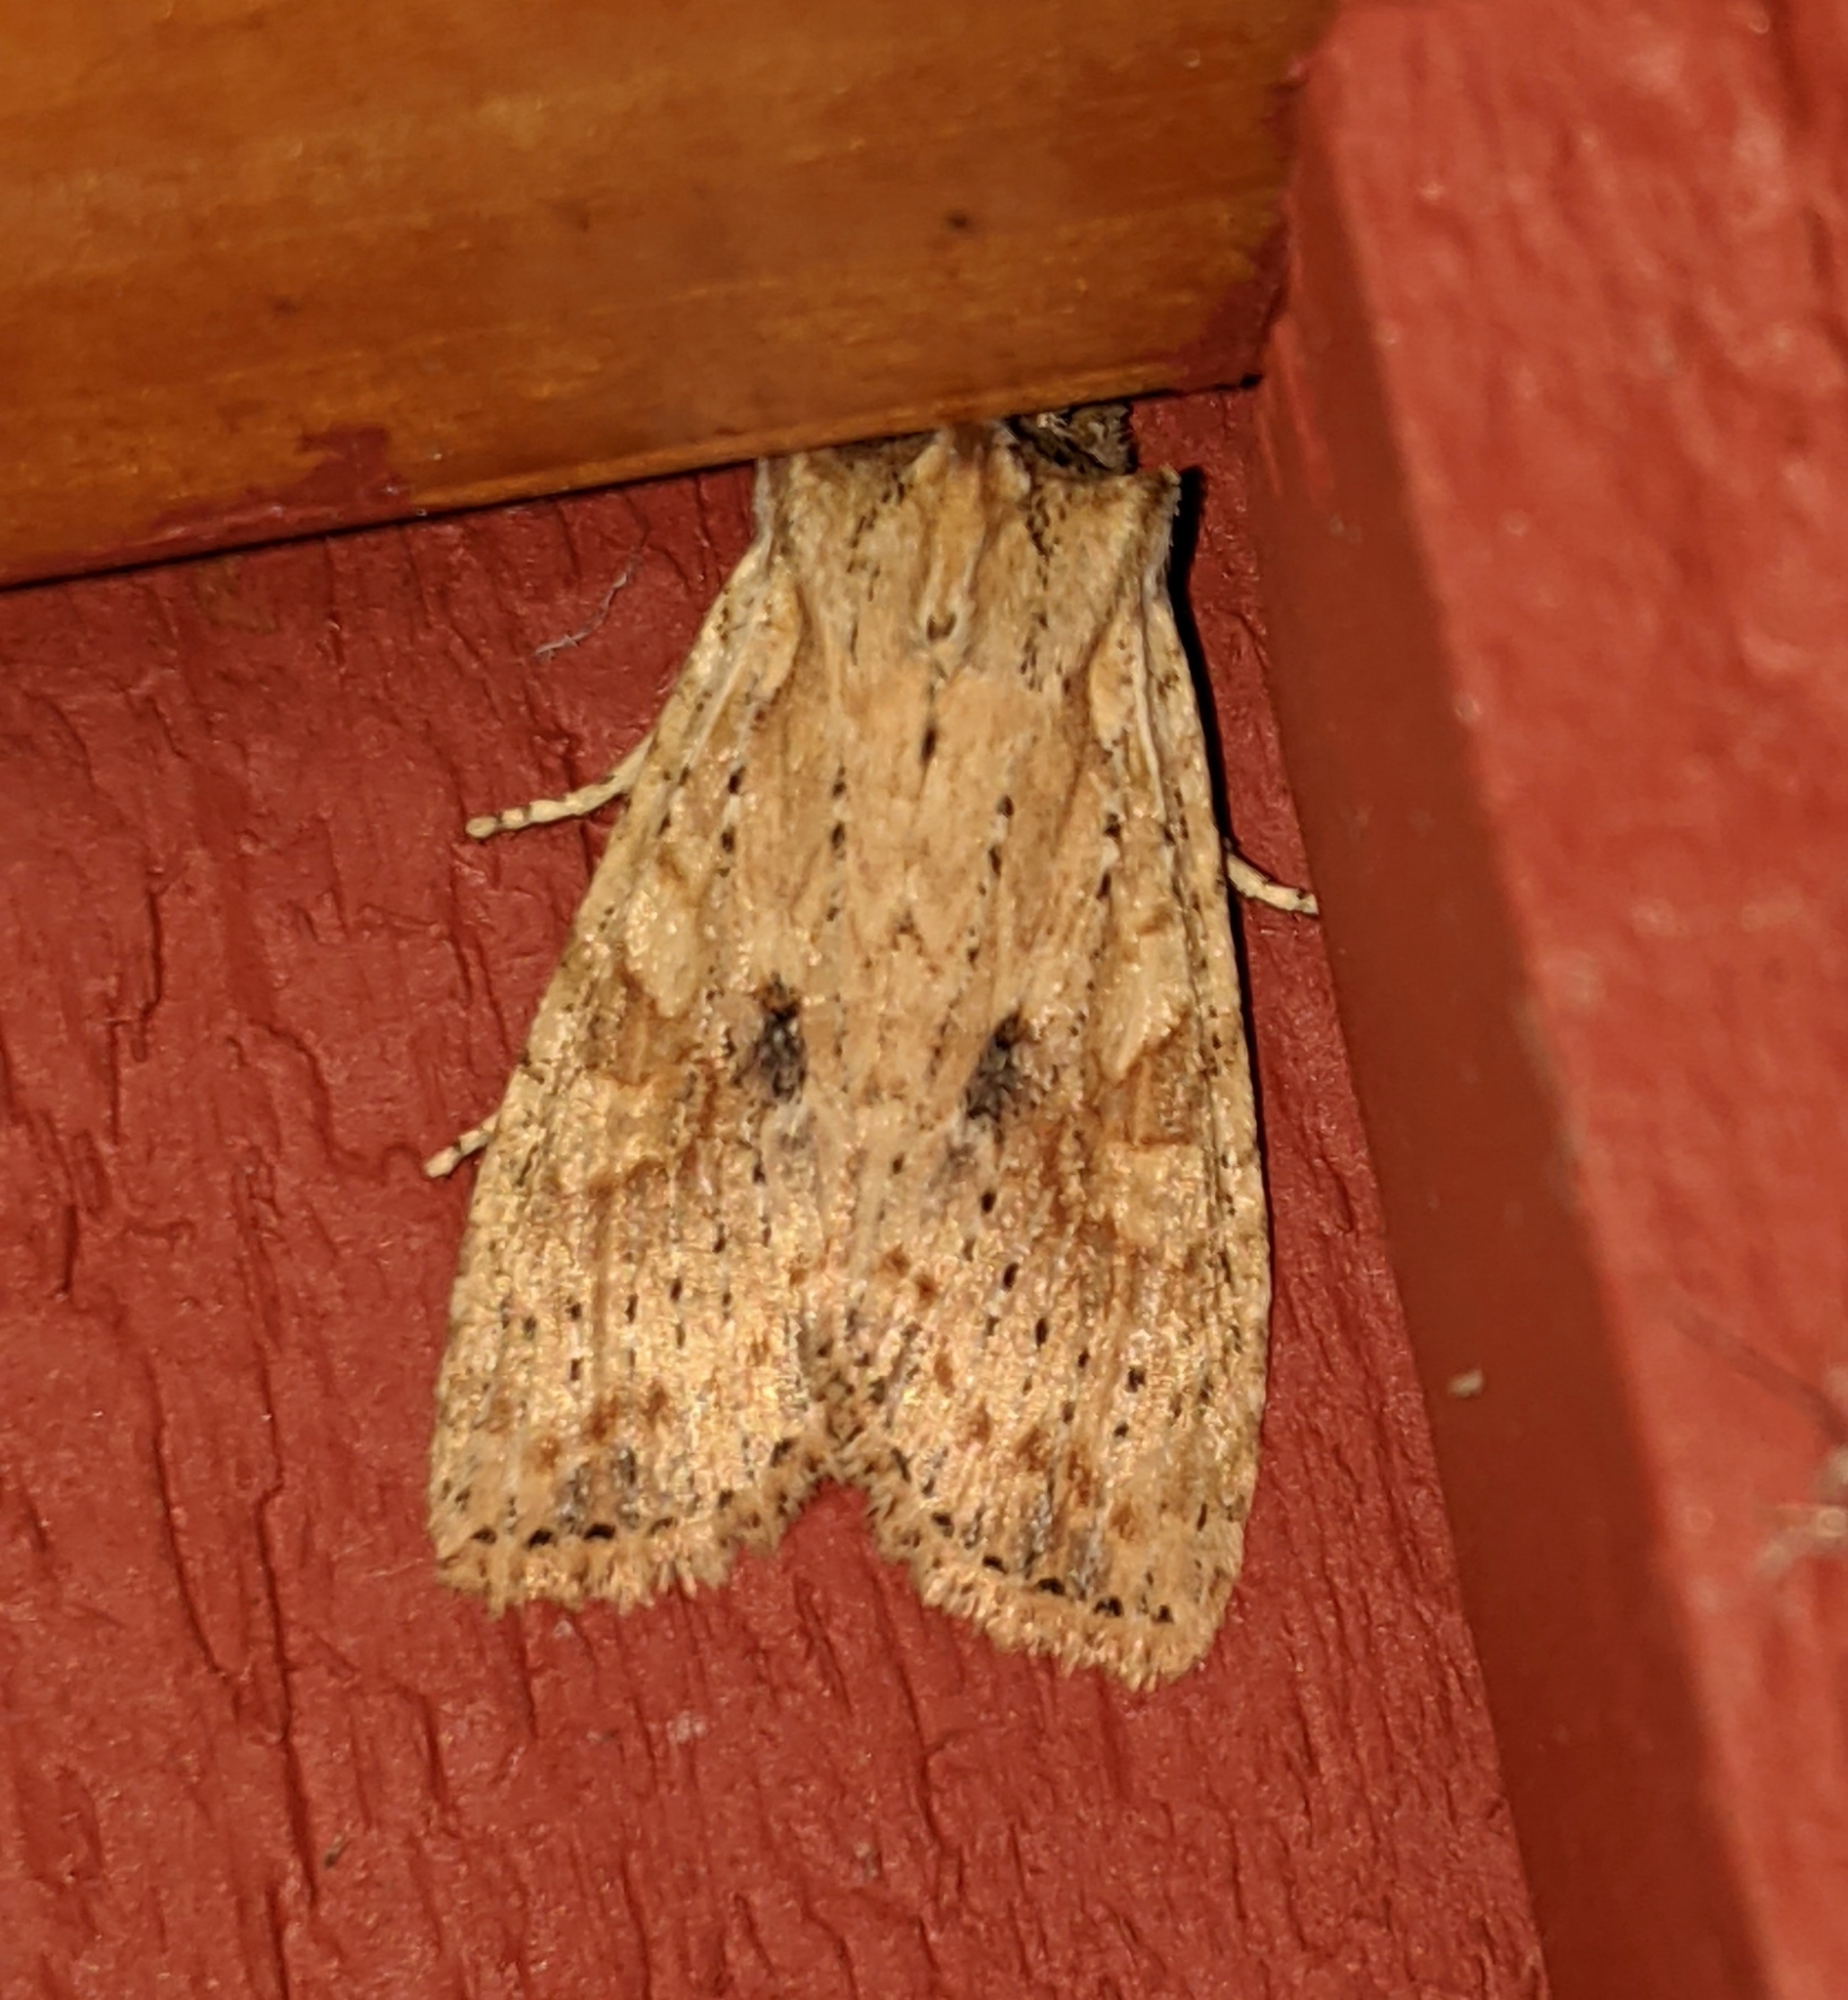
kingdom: Animalia
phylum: Arthropoda
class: Insecta
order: Lepidoptera
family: Noctuidae
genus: Lithophane
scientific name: Lithophane innominata
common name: Nameless pinion moth
